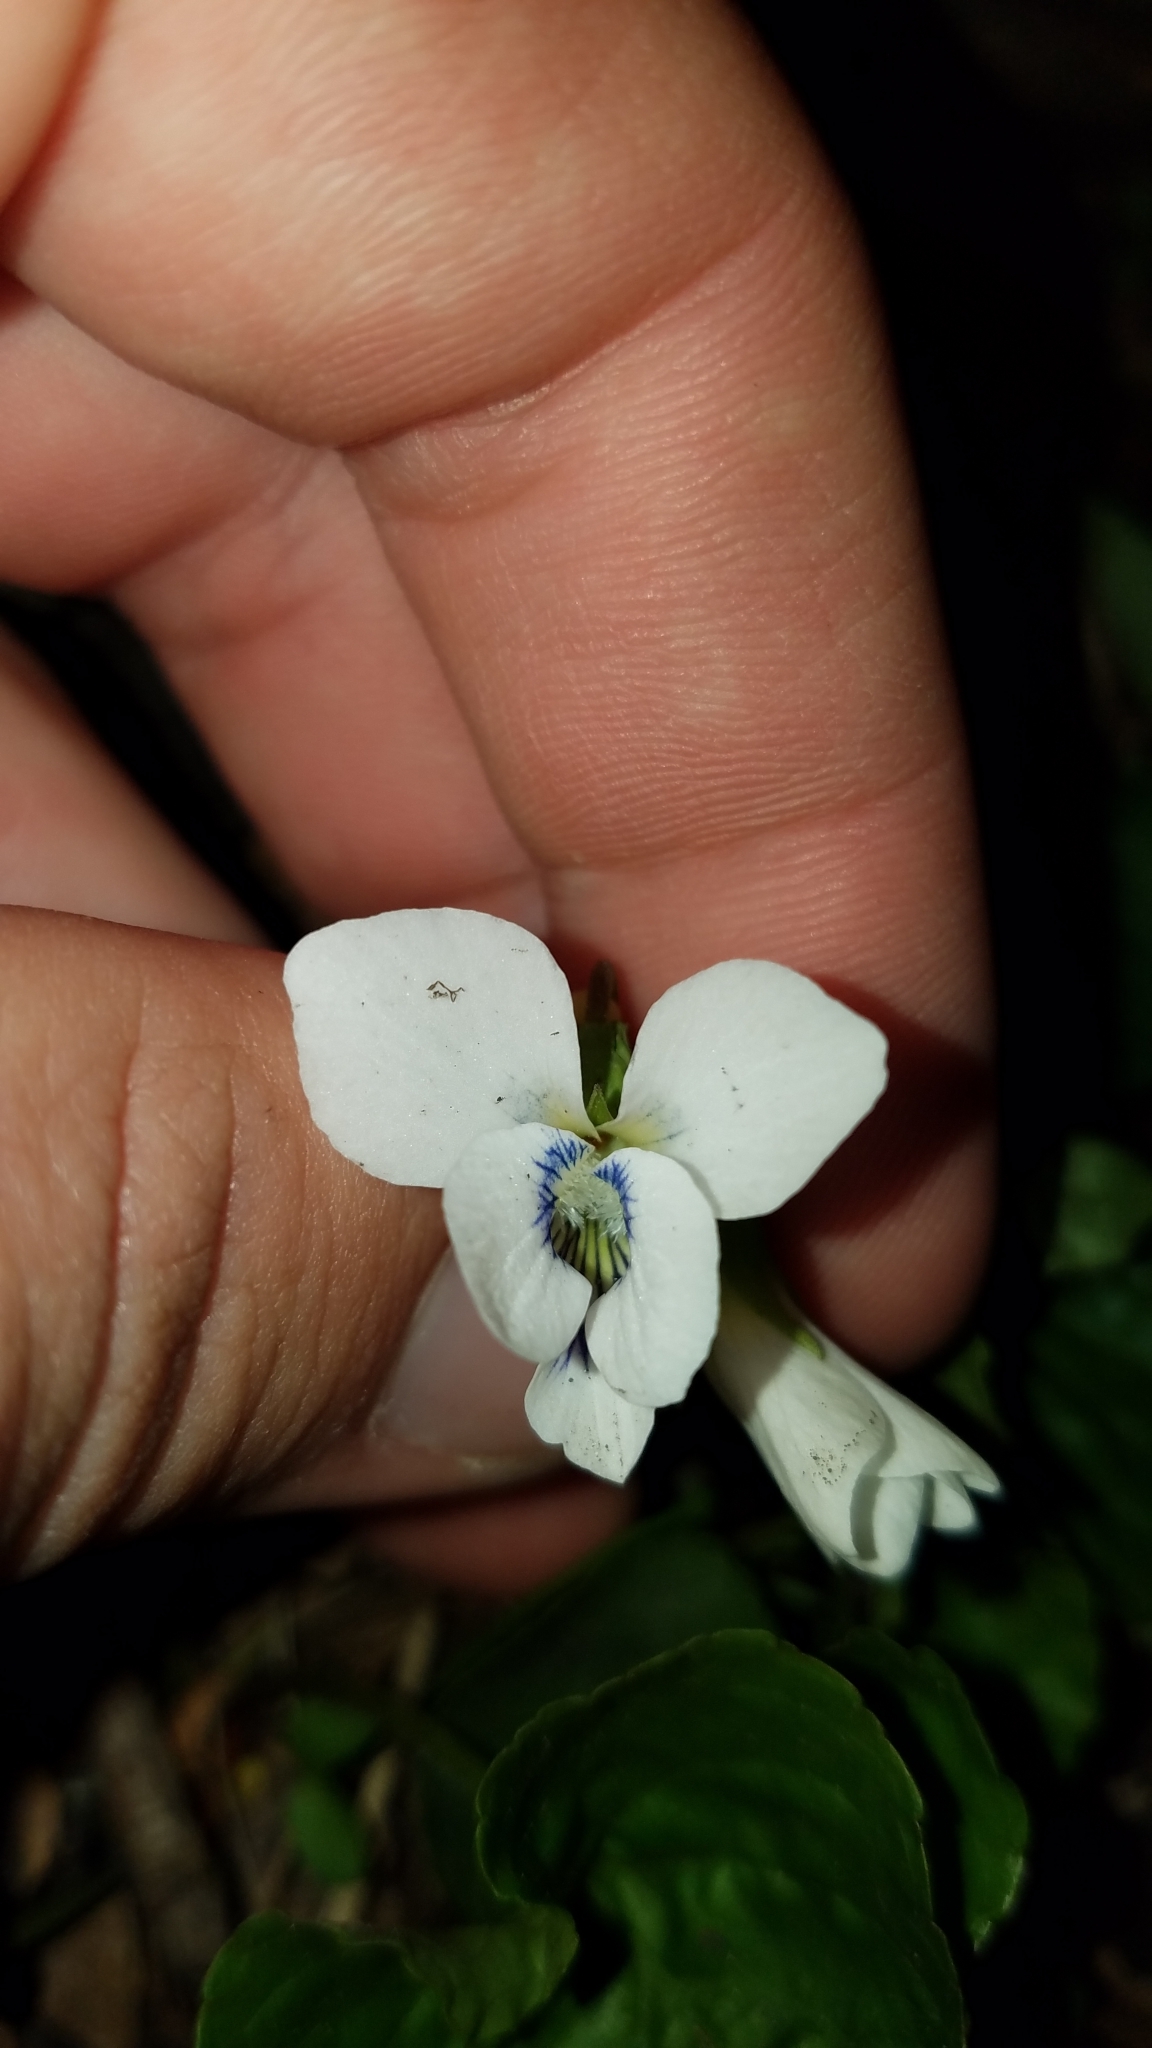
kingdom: Plantae
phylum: Tracheophyta
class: Magnoliopsida
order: Malpighiales
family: Violaceae
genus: Viola
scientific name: Viola sororia
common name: Dooryard violet
